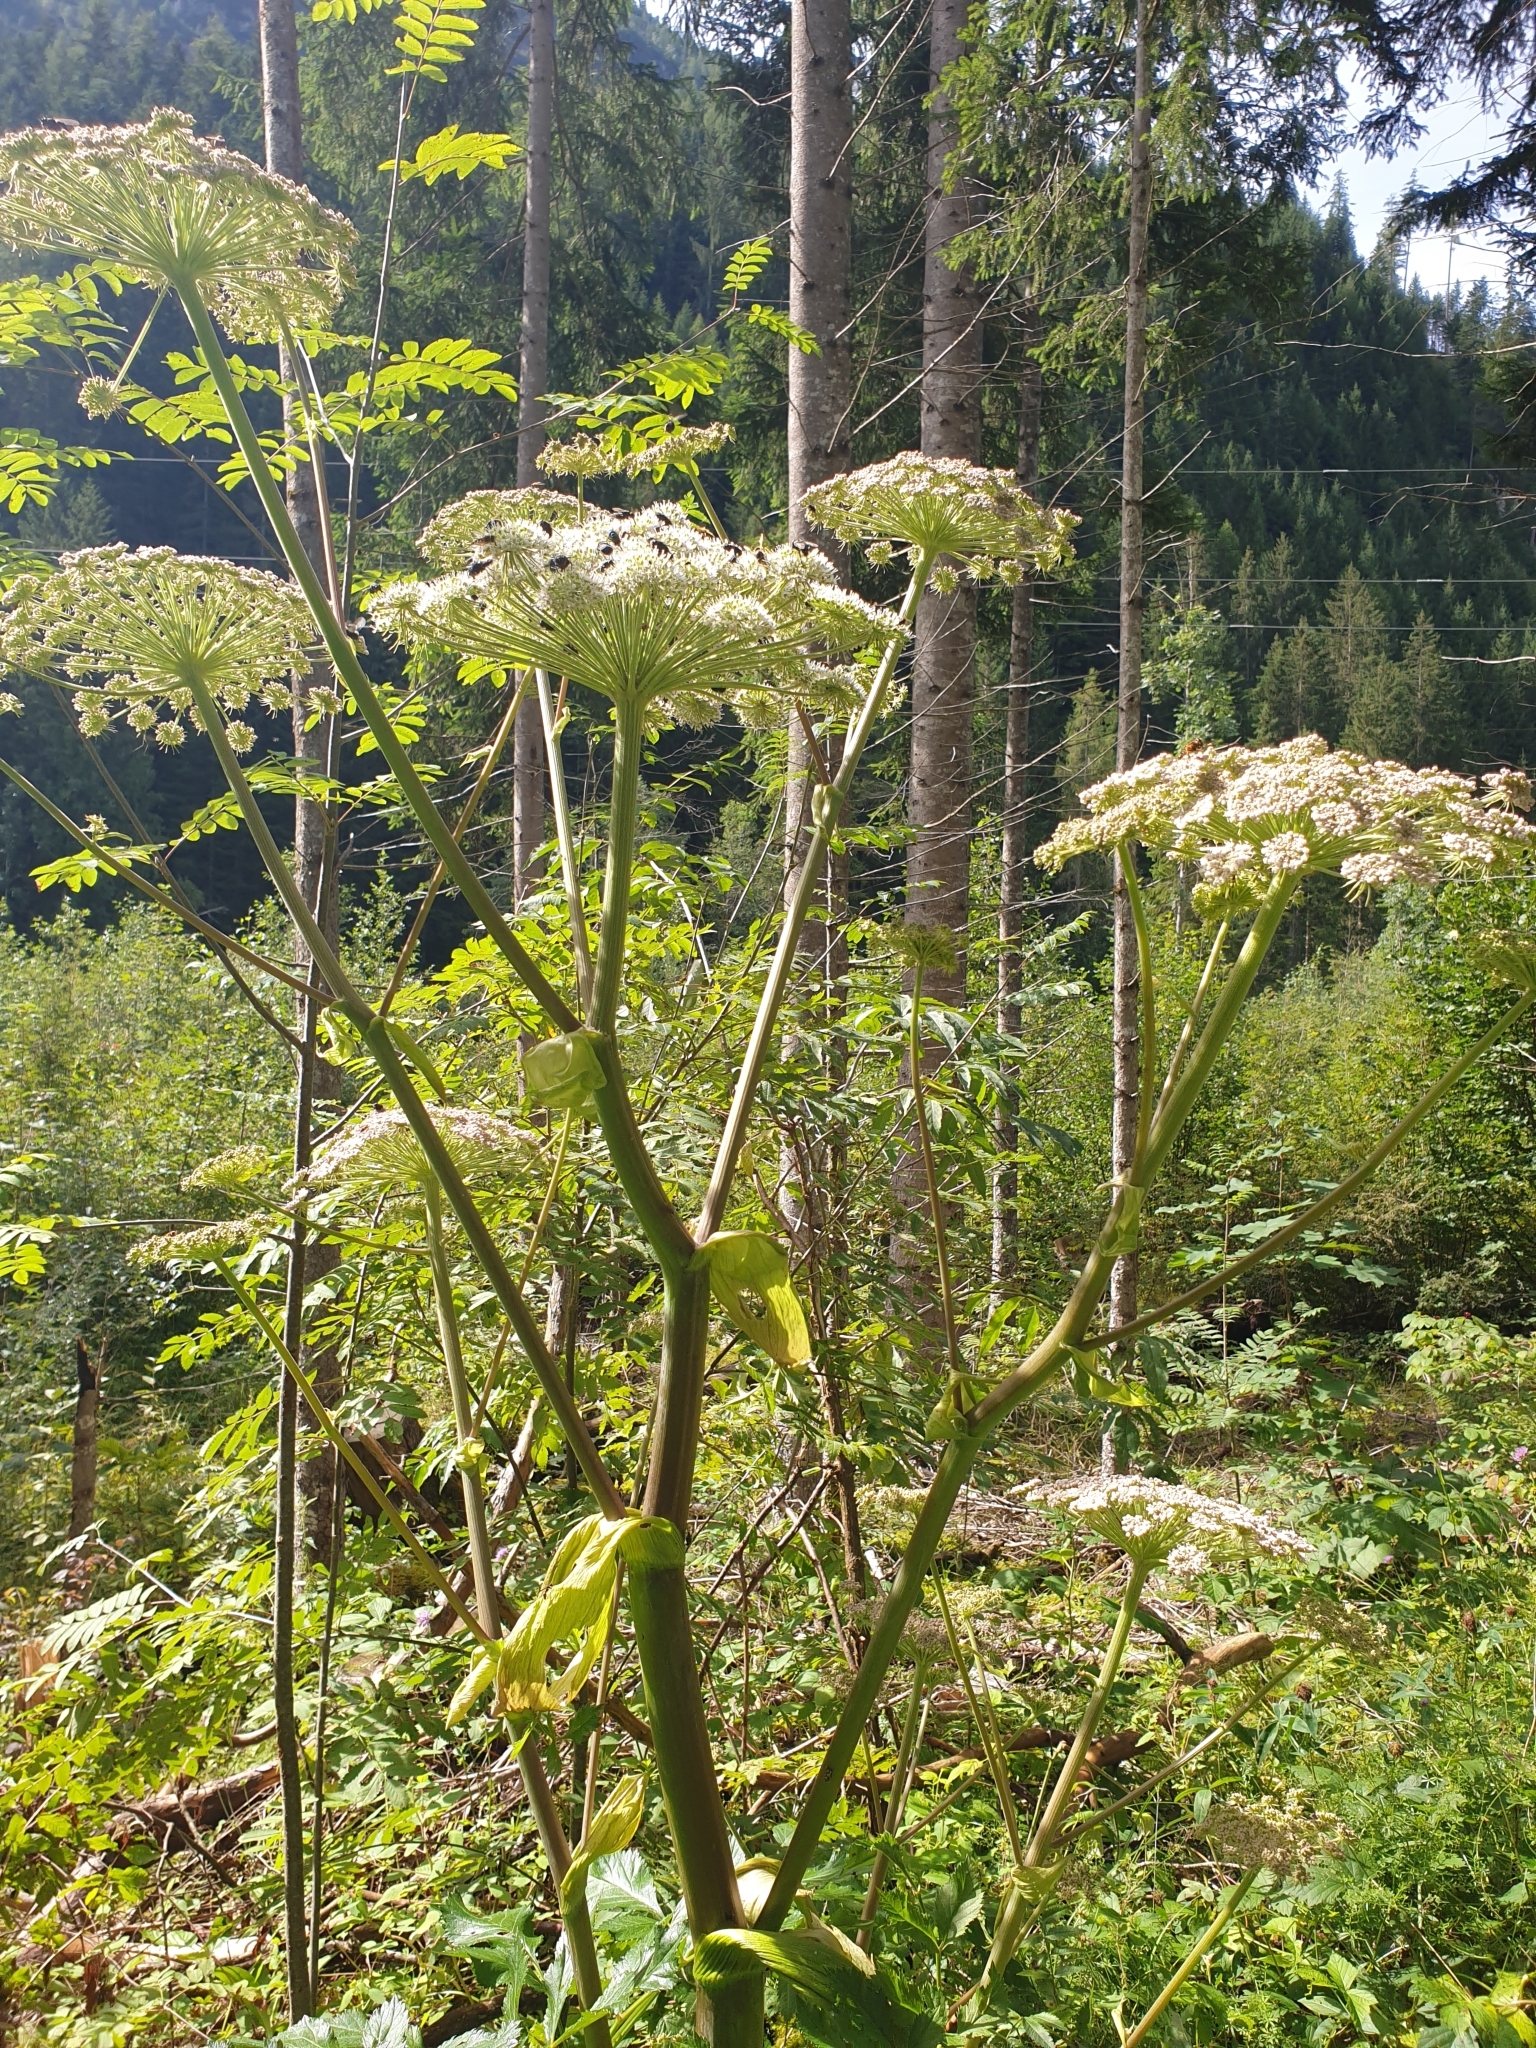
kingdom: Plantae
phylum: Tracheophyta
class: Magnoliopsida
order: Apiales
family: Apiaceae
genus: Angelica
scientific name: Angelica sylvestris
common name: Wild angelica
